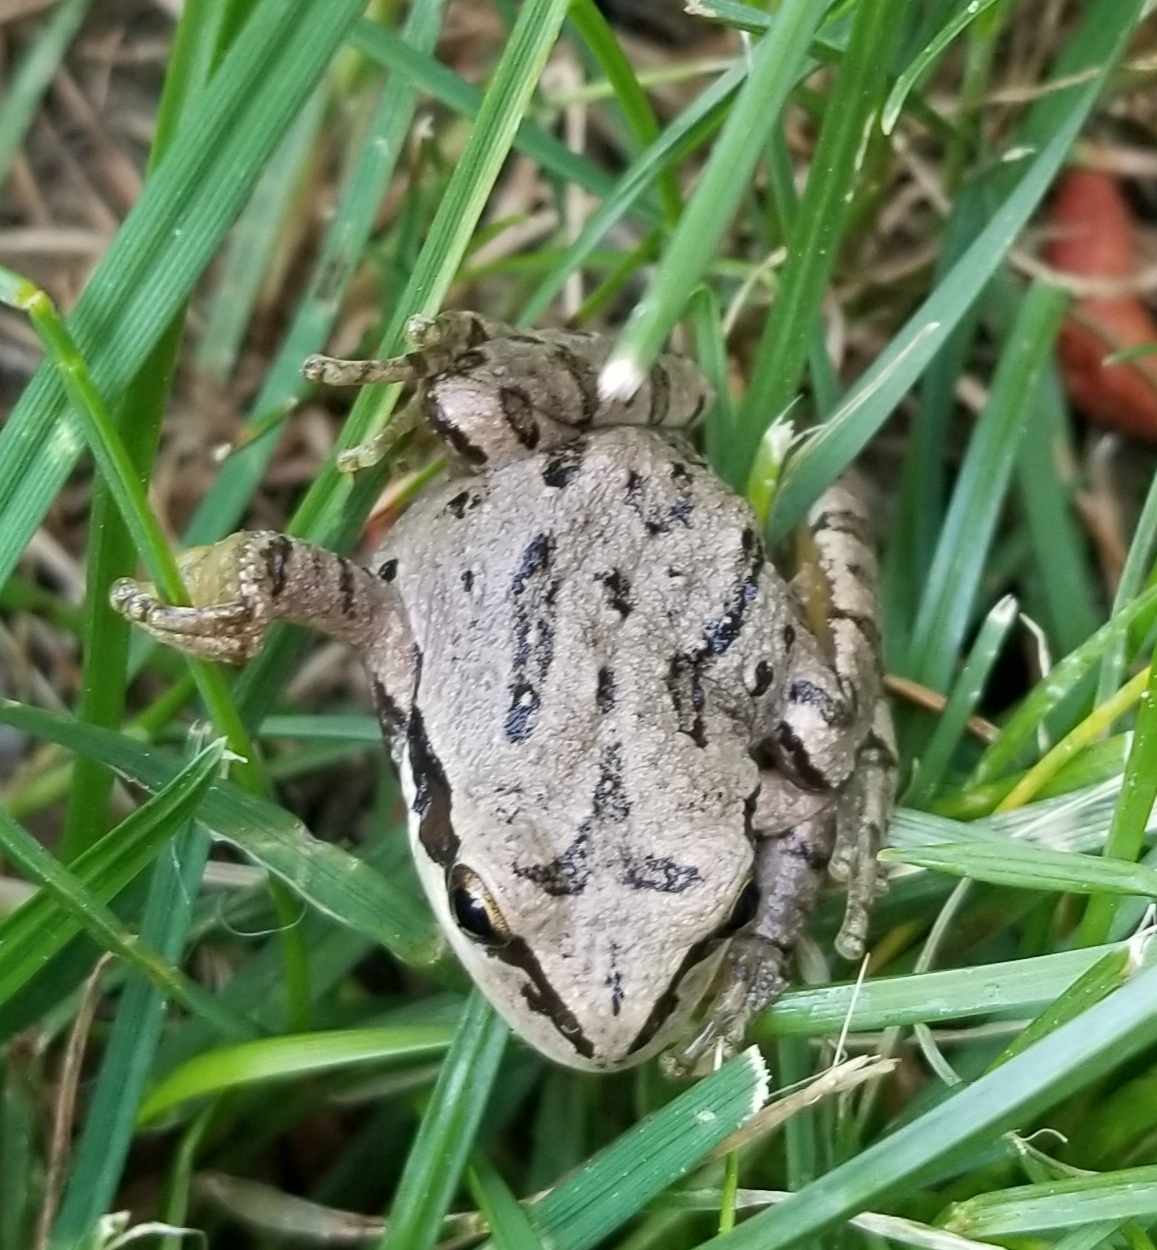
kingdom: Animalia
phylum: Chordata
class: Amphibia
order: Anura
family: Hylidae
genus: Pseudacris
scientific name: Pseudacris regilla
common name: Pacific chorus frog
